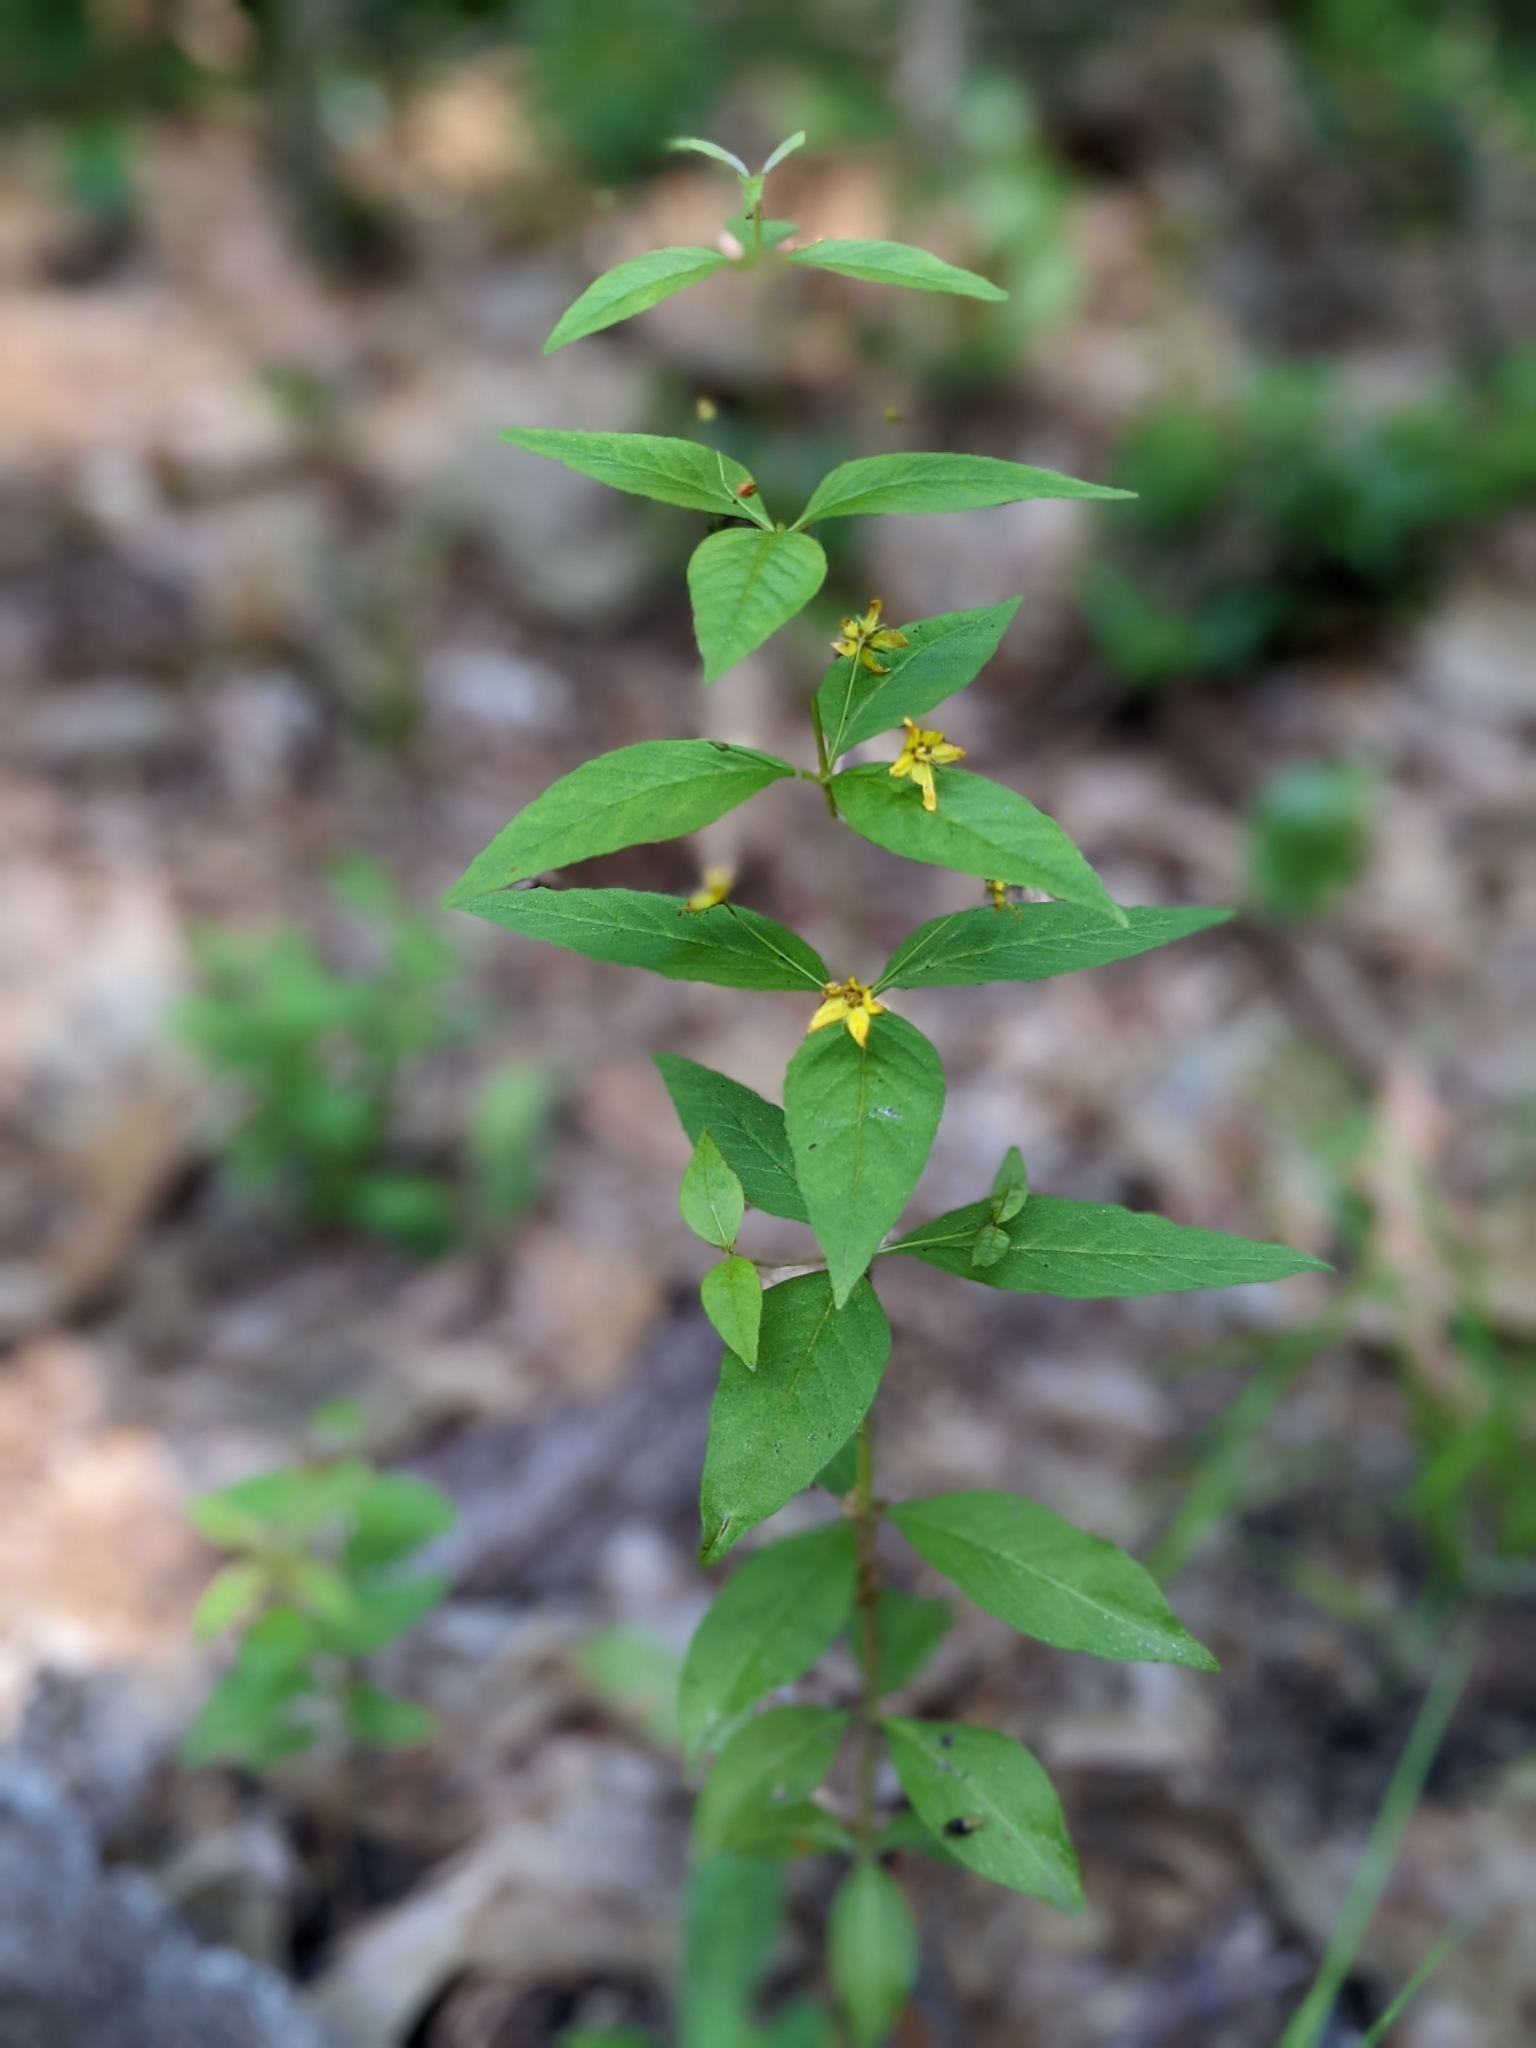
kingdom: Plantae
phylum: Tracheophyta
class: Magnoliopsida
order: Ericales
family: Primulaceae
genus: Lysimachia
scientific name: Lysimachia quadrifolia
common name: Whorled loosestrife
